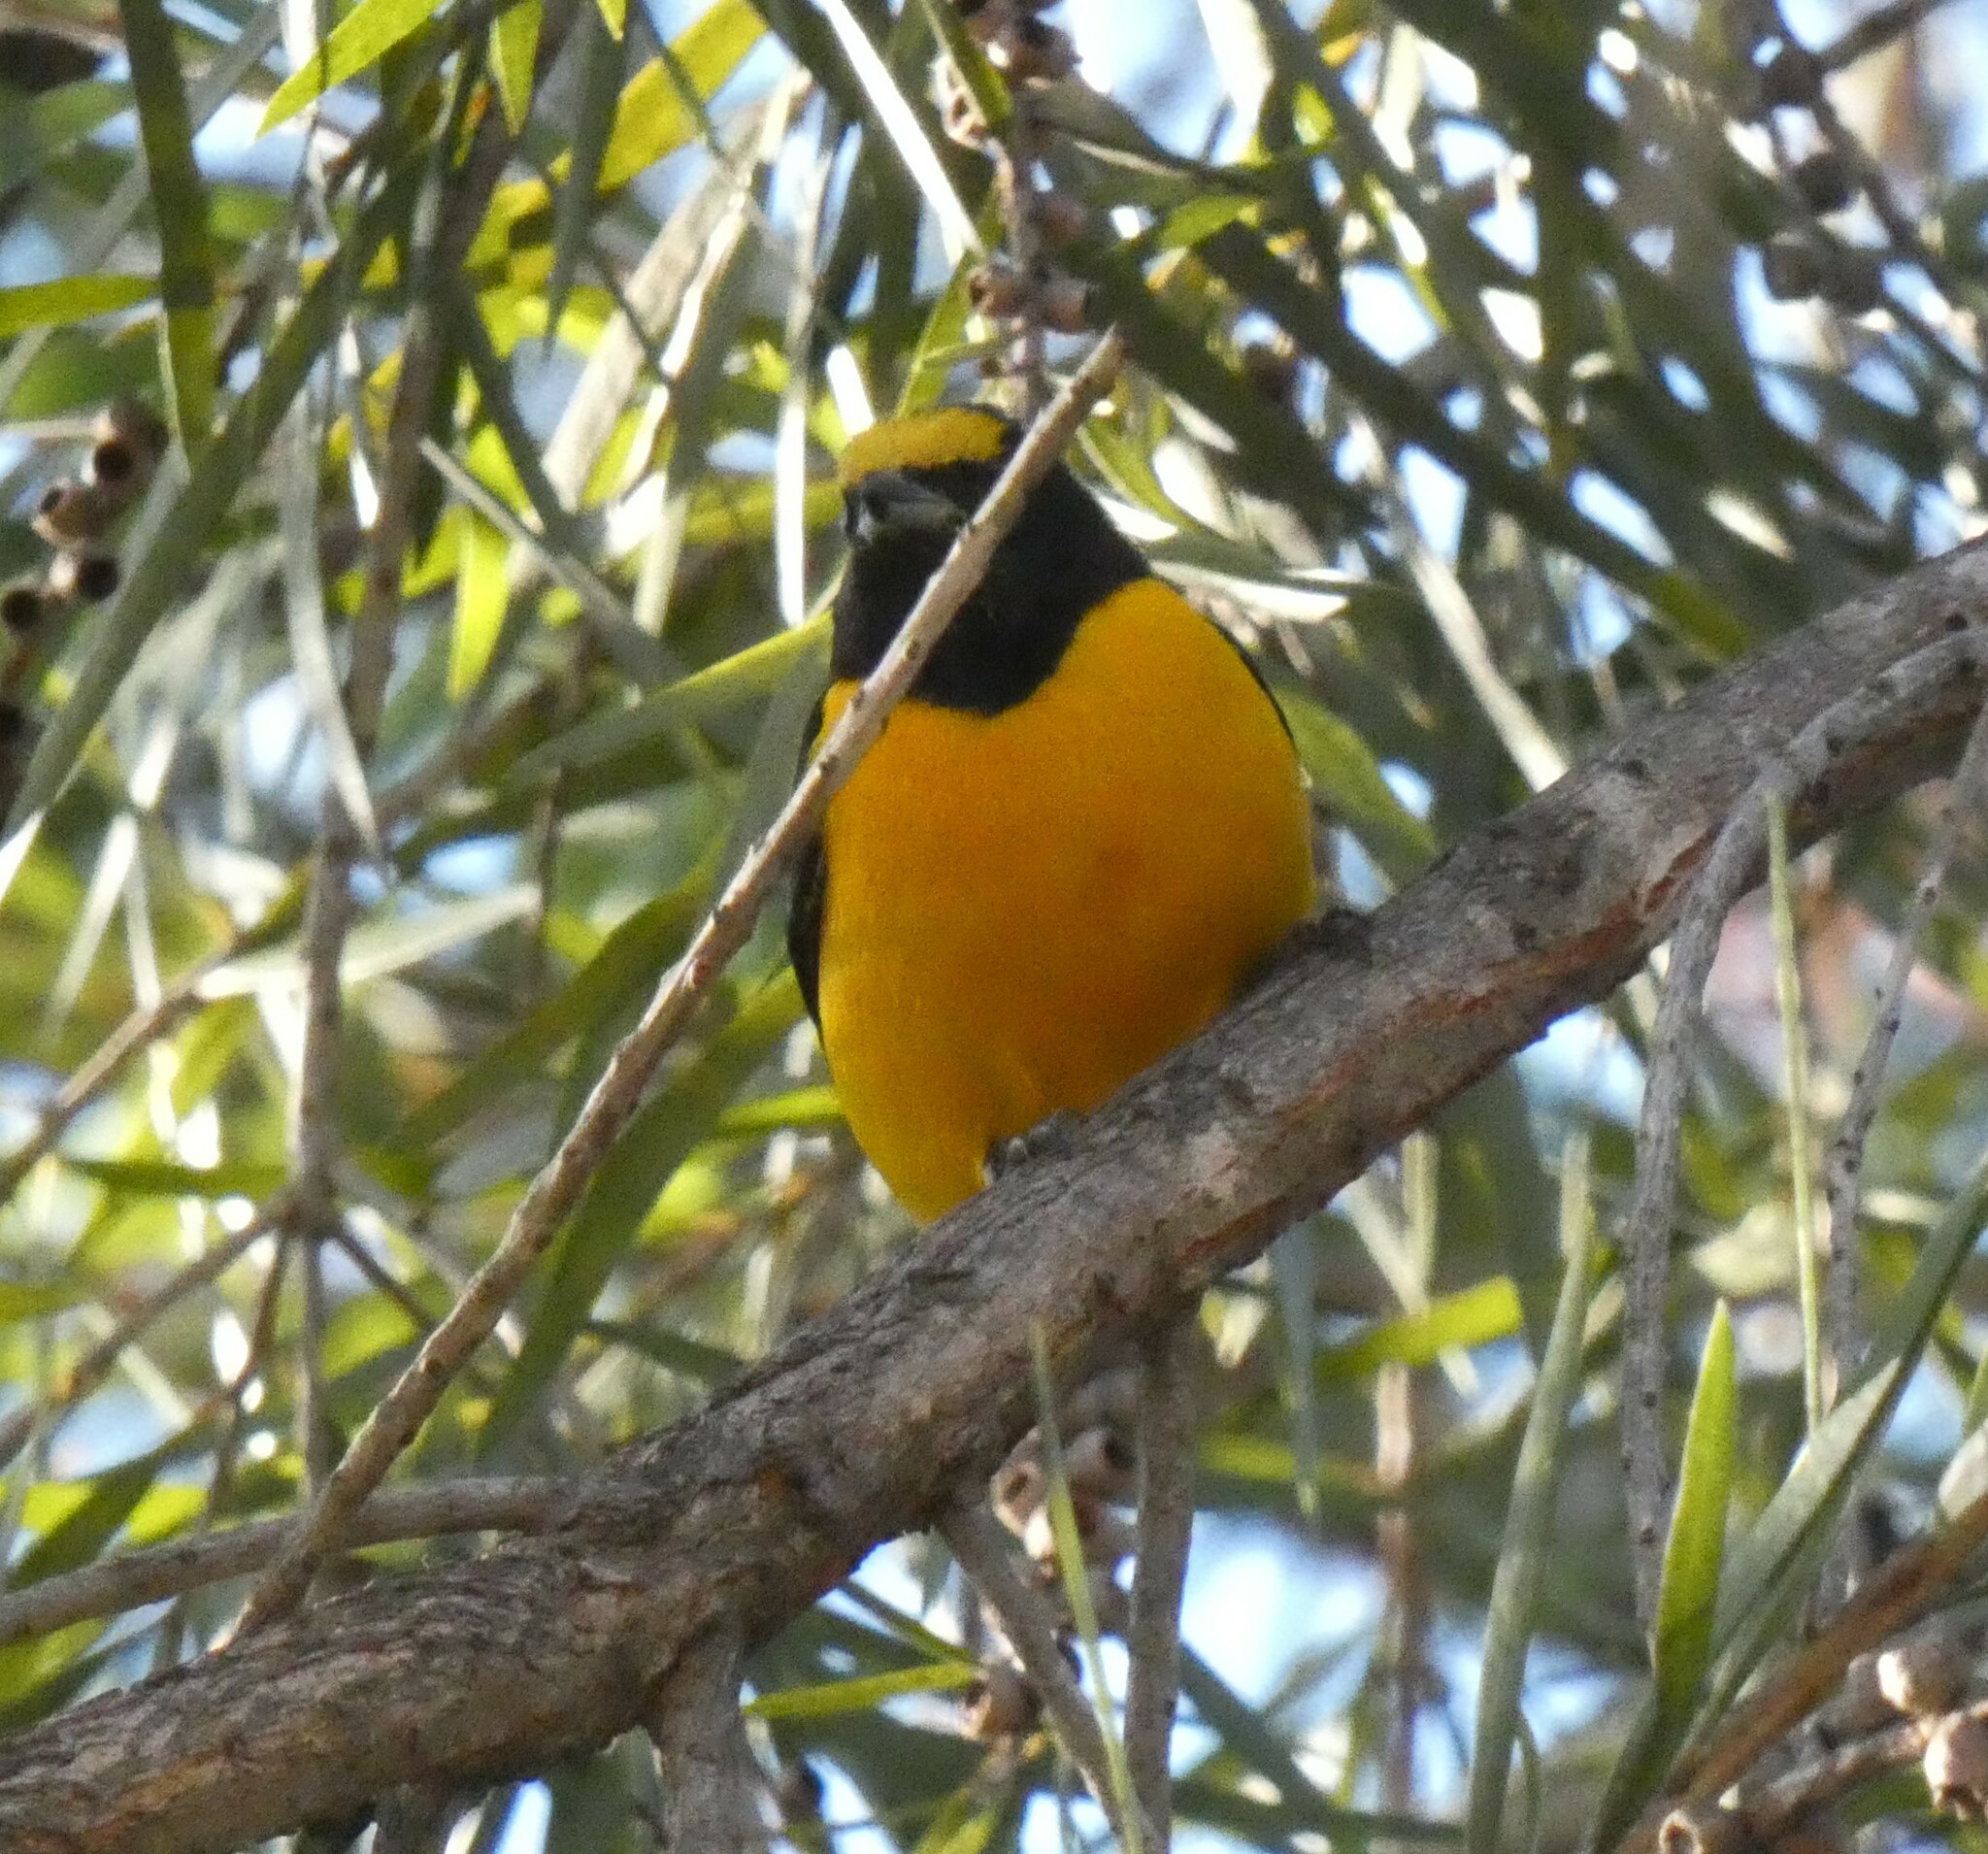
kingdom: Animalia
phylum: Chordata
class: Aves
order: Passeriformes
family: Fringillidae
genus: Euphonia
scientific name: Euphonia chlorotica
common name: Purple-throated euphonia
